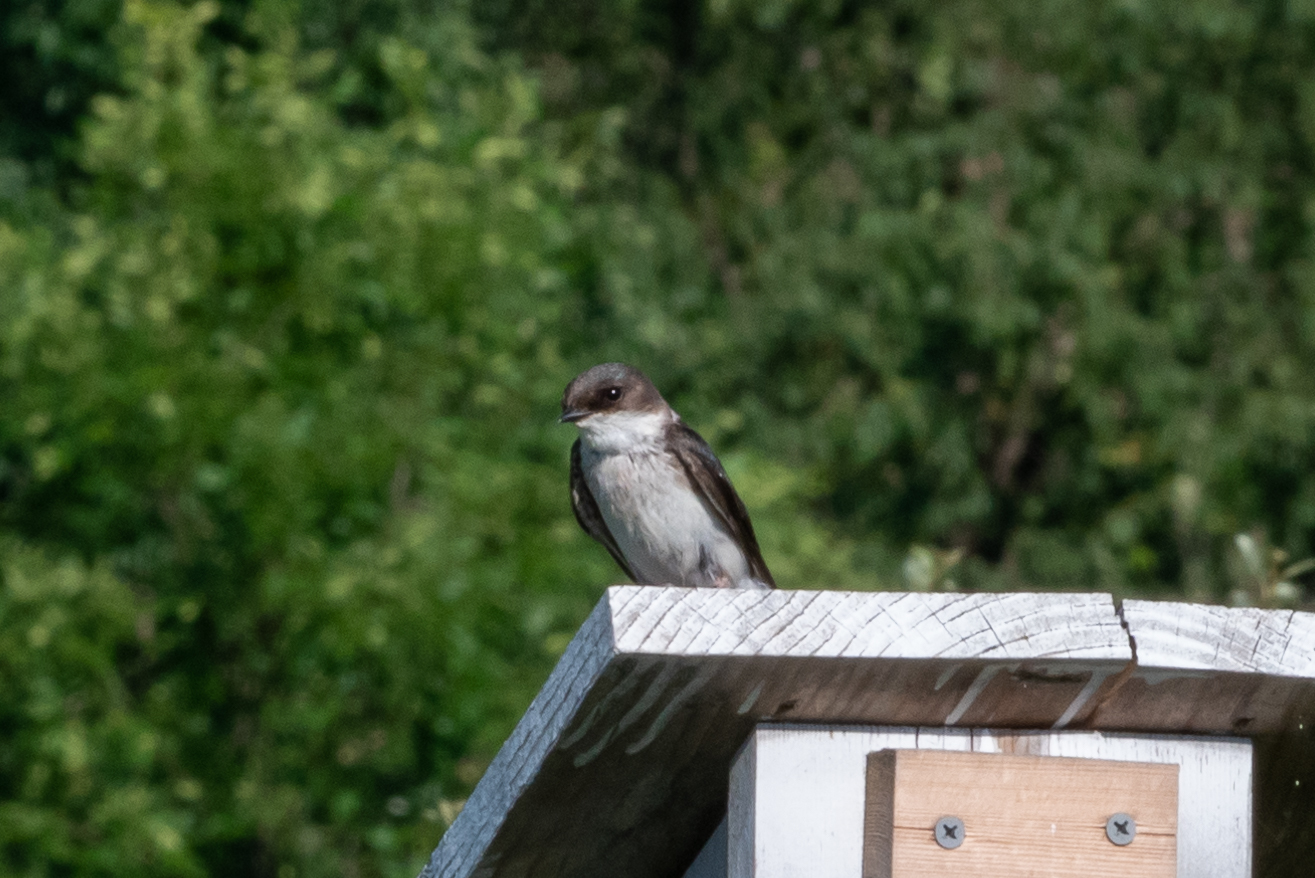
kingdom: Animalia
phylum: Chordata
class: Aves
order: Passeriformes
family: Hirundinidae
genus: Tachycineta
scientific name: Tachycineta bicolor
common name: Tree swallow
